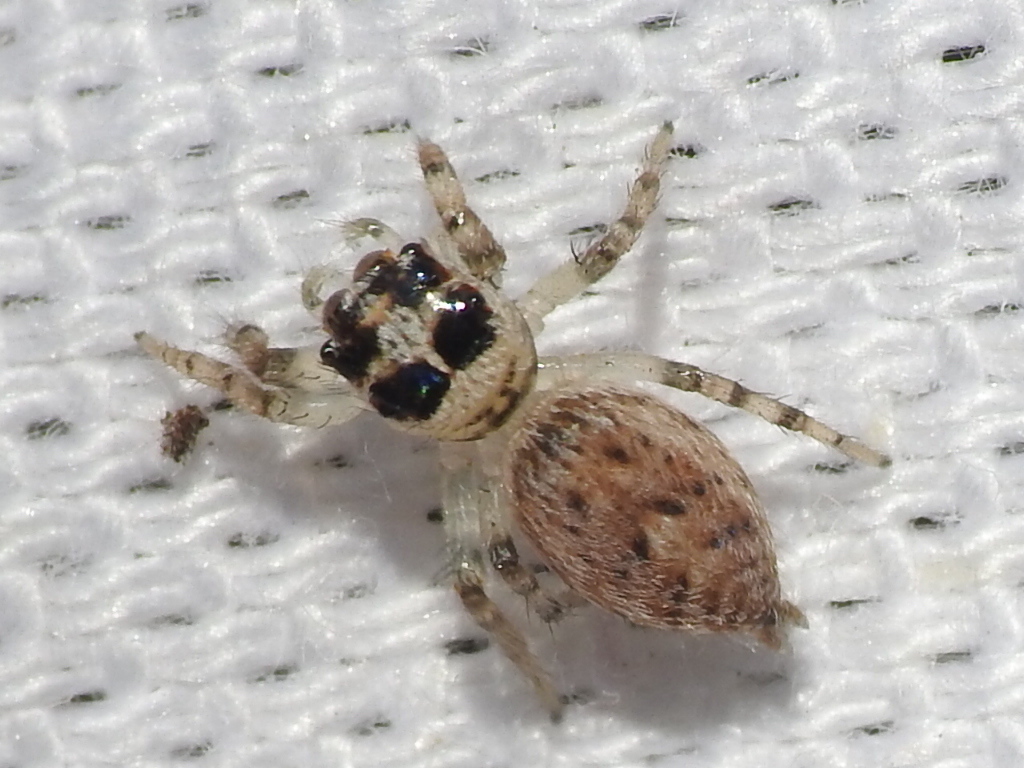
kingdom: Animalia
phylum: Arthropoda
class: Arachnida
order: Araneae
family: Salticidae
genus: Colonus
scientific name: Colonus hesperus
